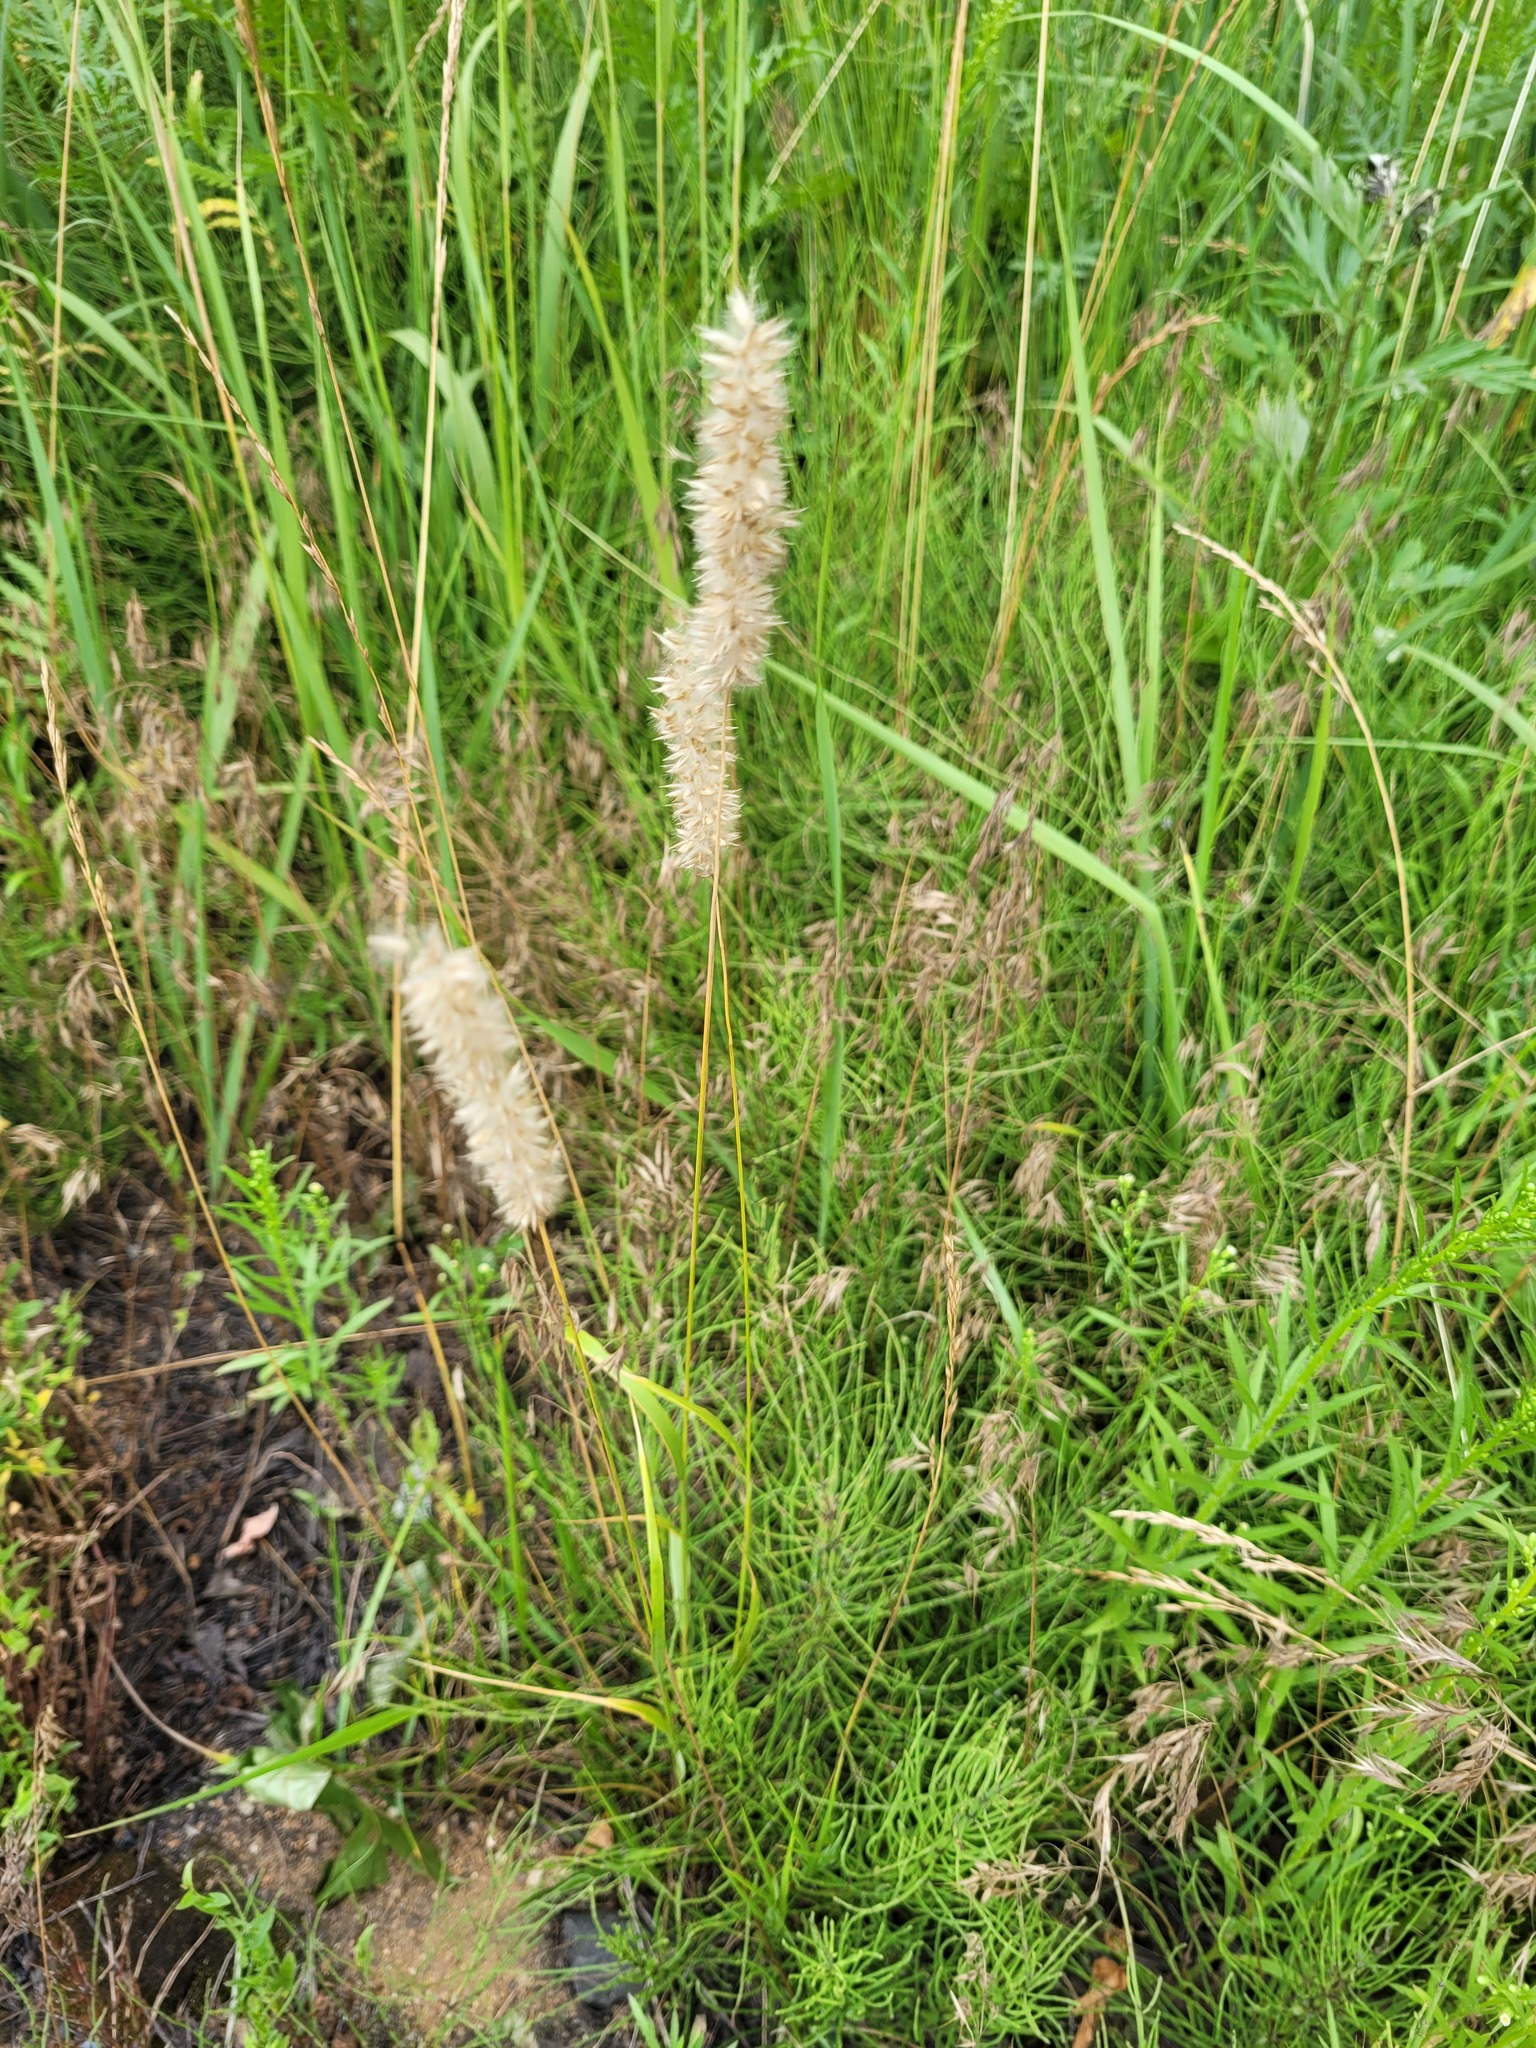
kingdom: Plantae
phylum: Tracheophyta
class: Liliopsida
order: Poales
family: Poaceae
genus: Melica
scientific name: Melica transsilvanica
